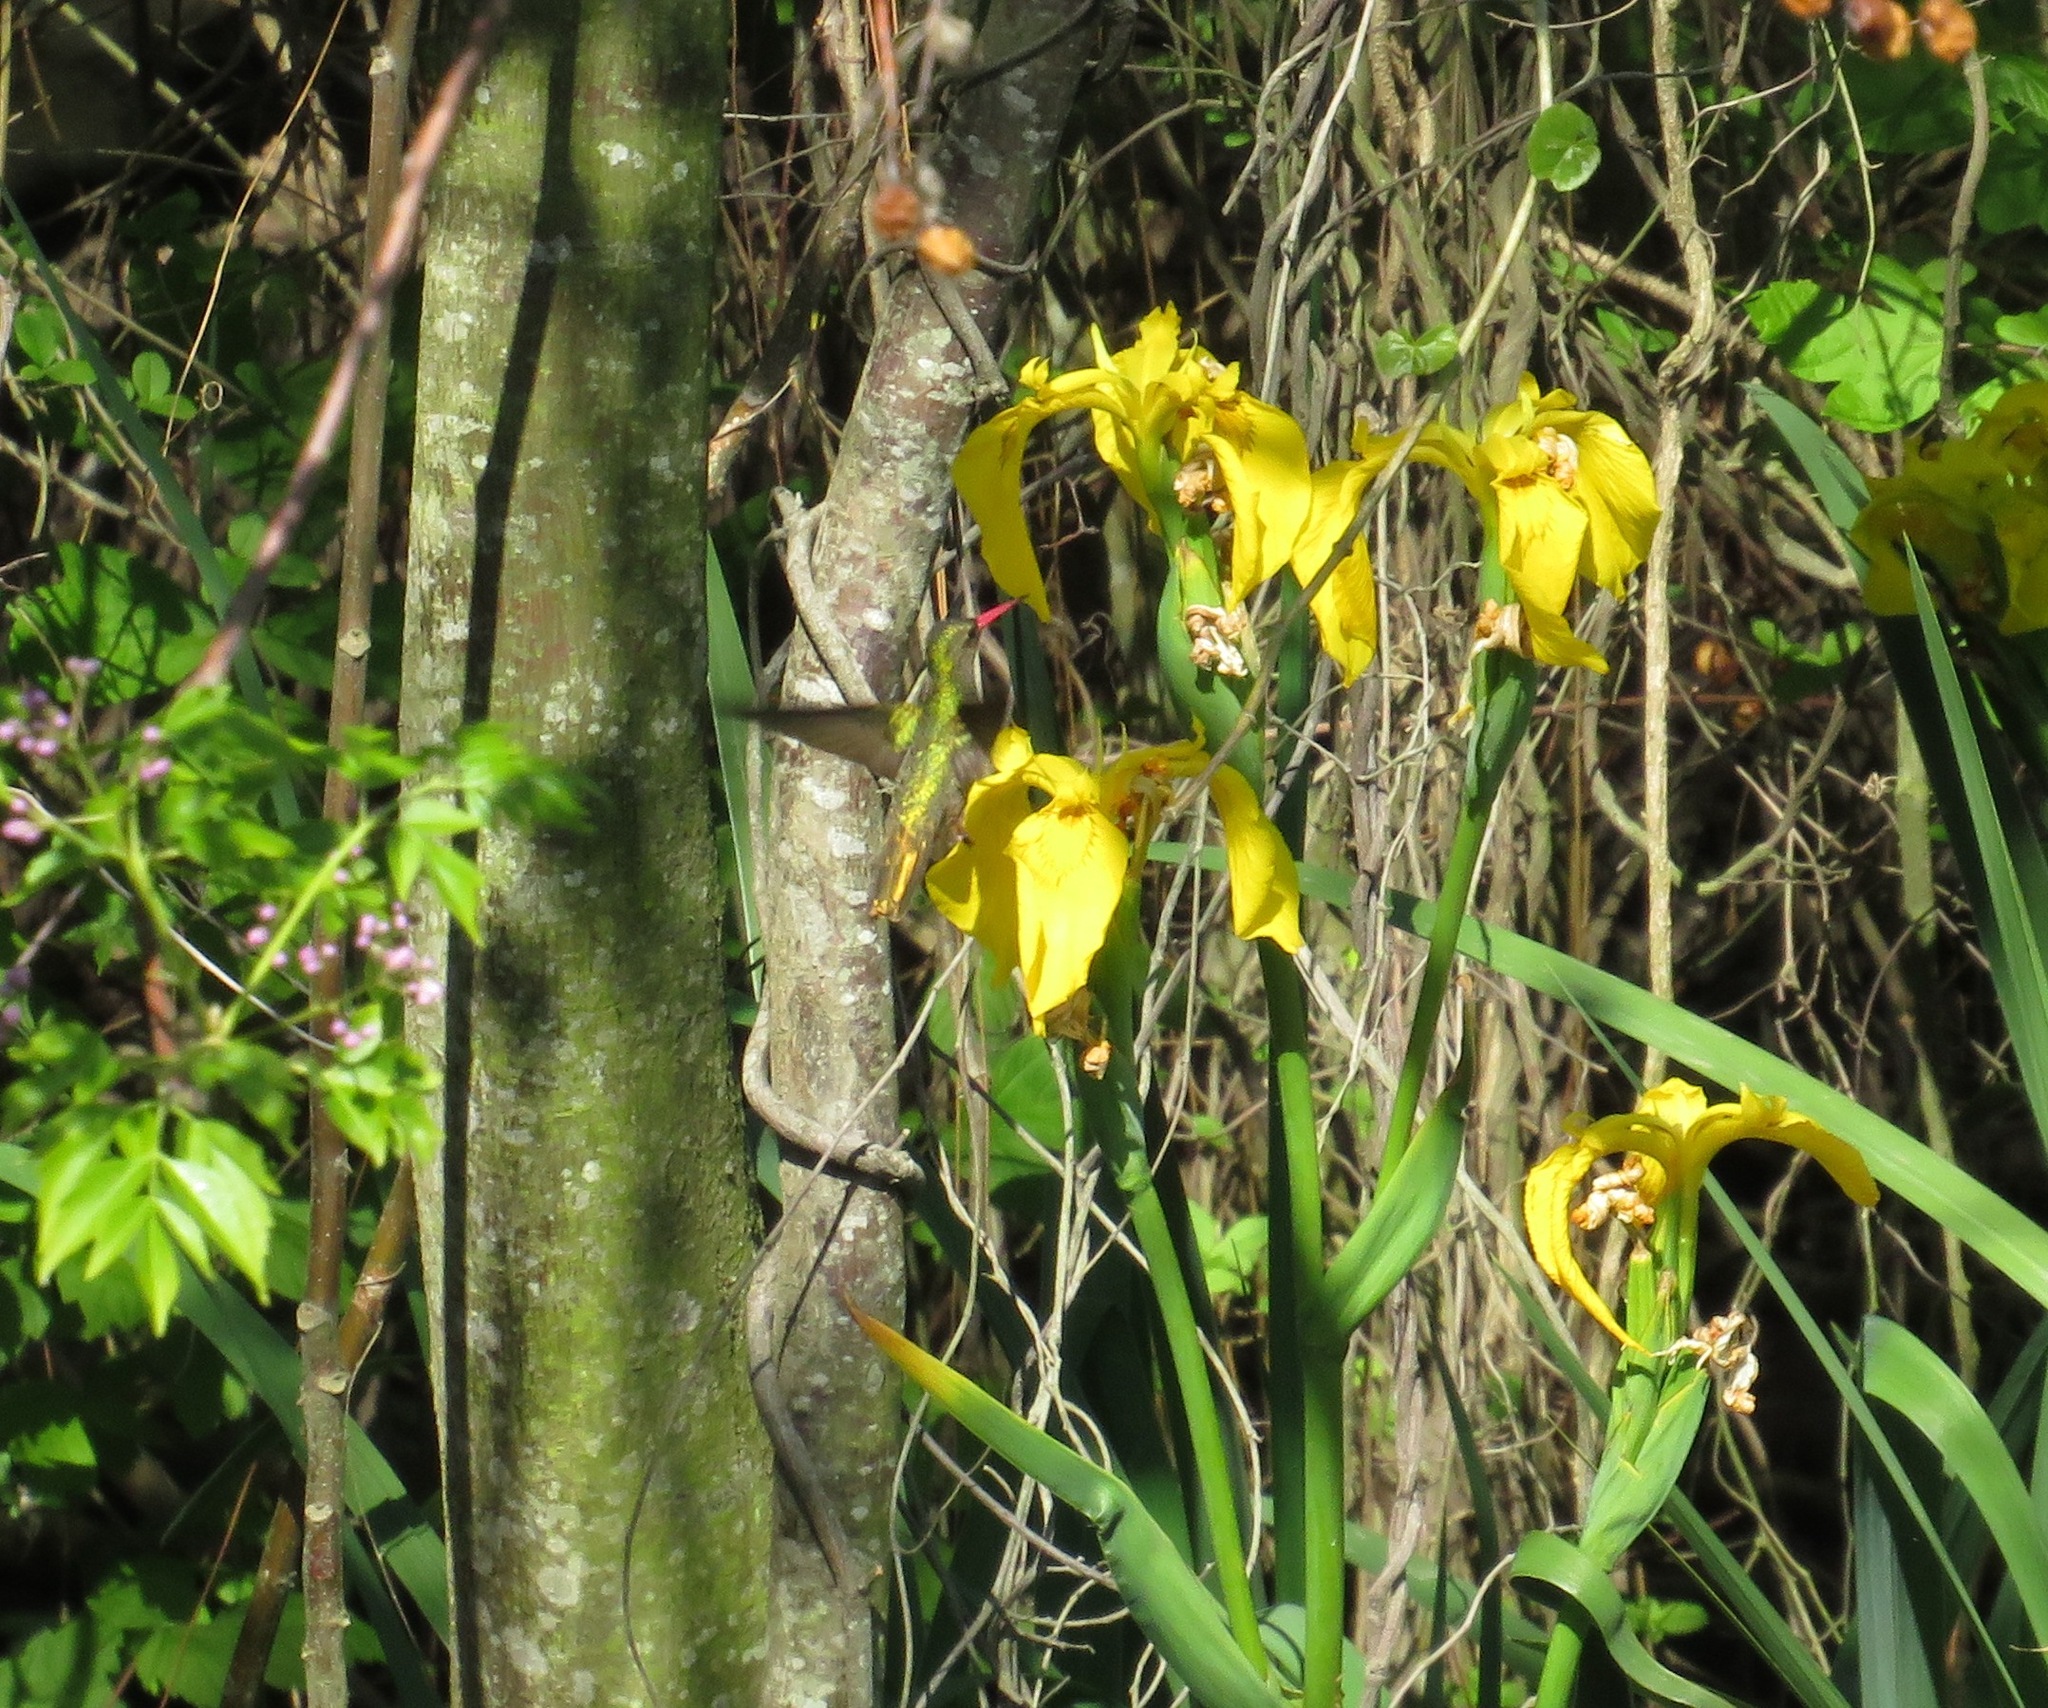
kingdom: Animalia
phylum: Chordata
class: Aves
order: Apodiformes
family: Trochilidae
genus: Hylocharis
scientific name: Hylocharis chrysura
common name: Gilded sapphire
